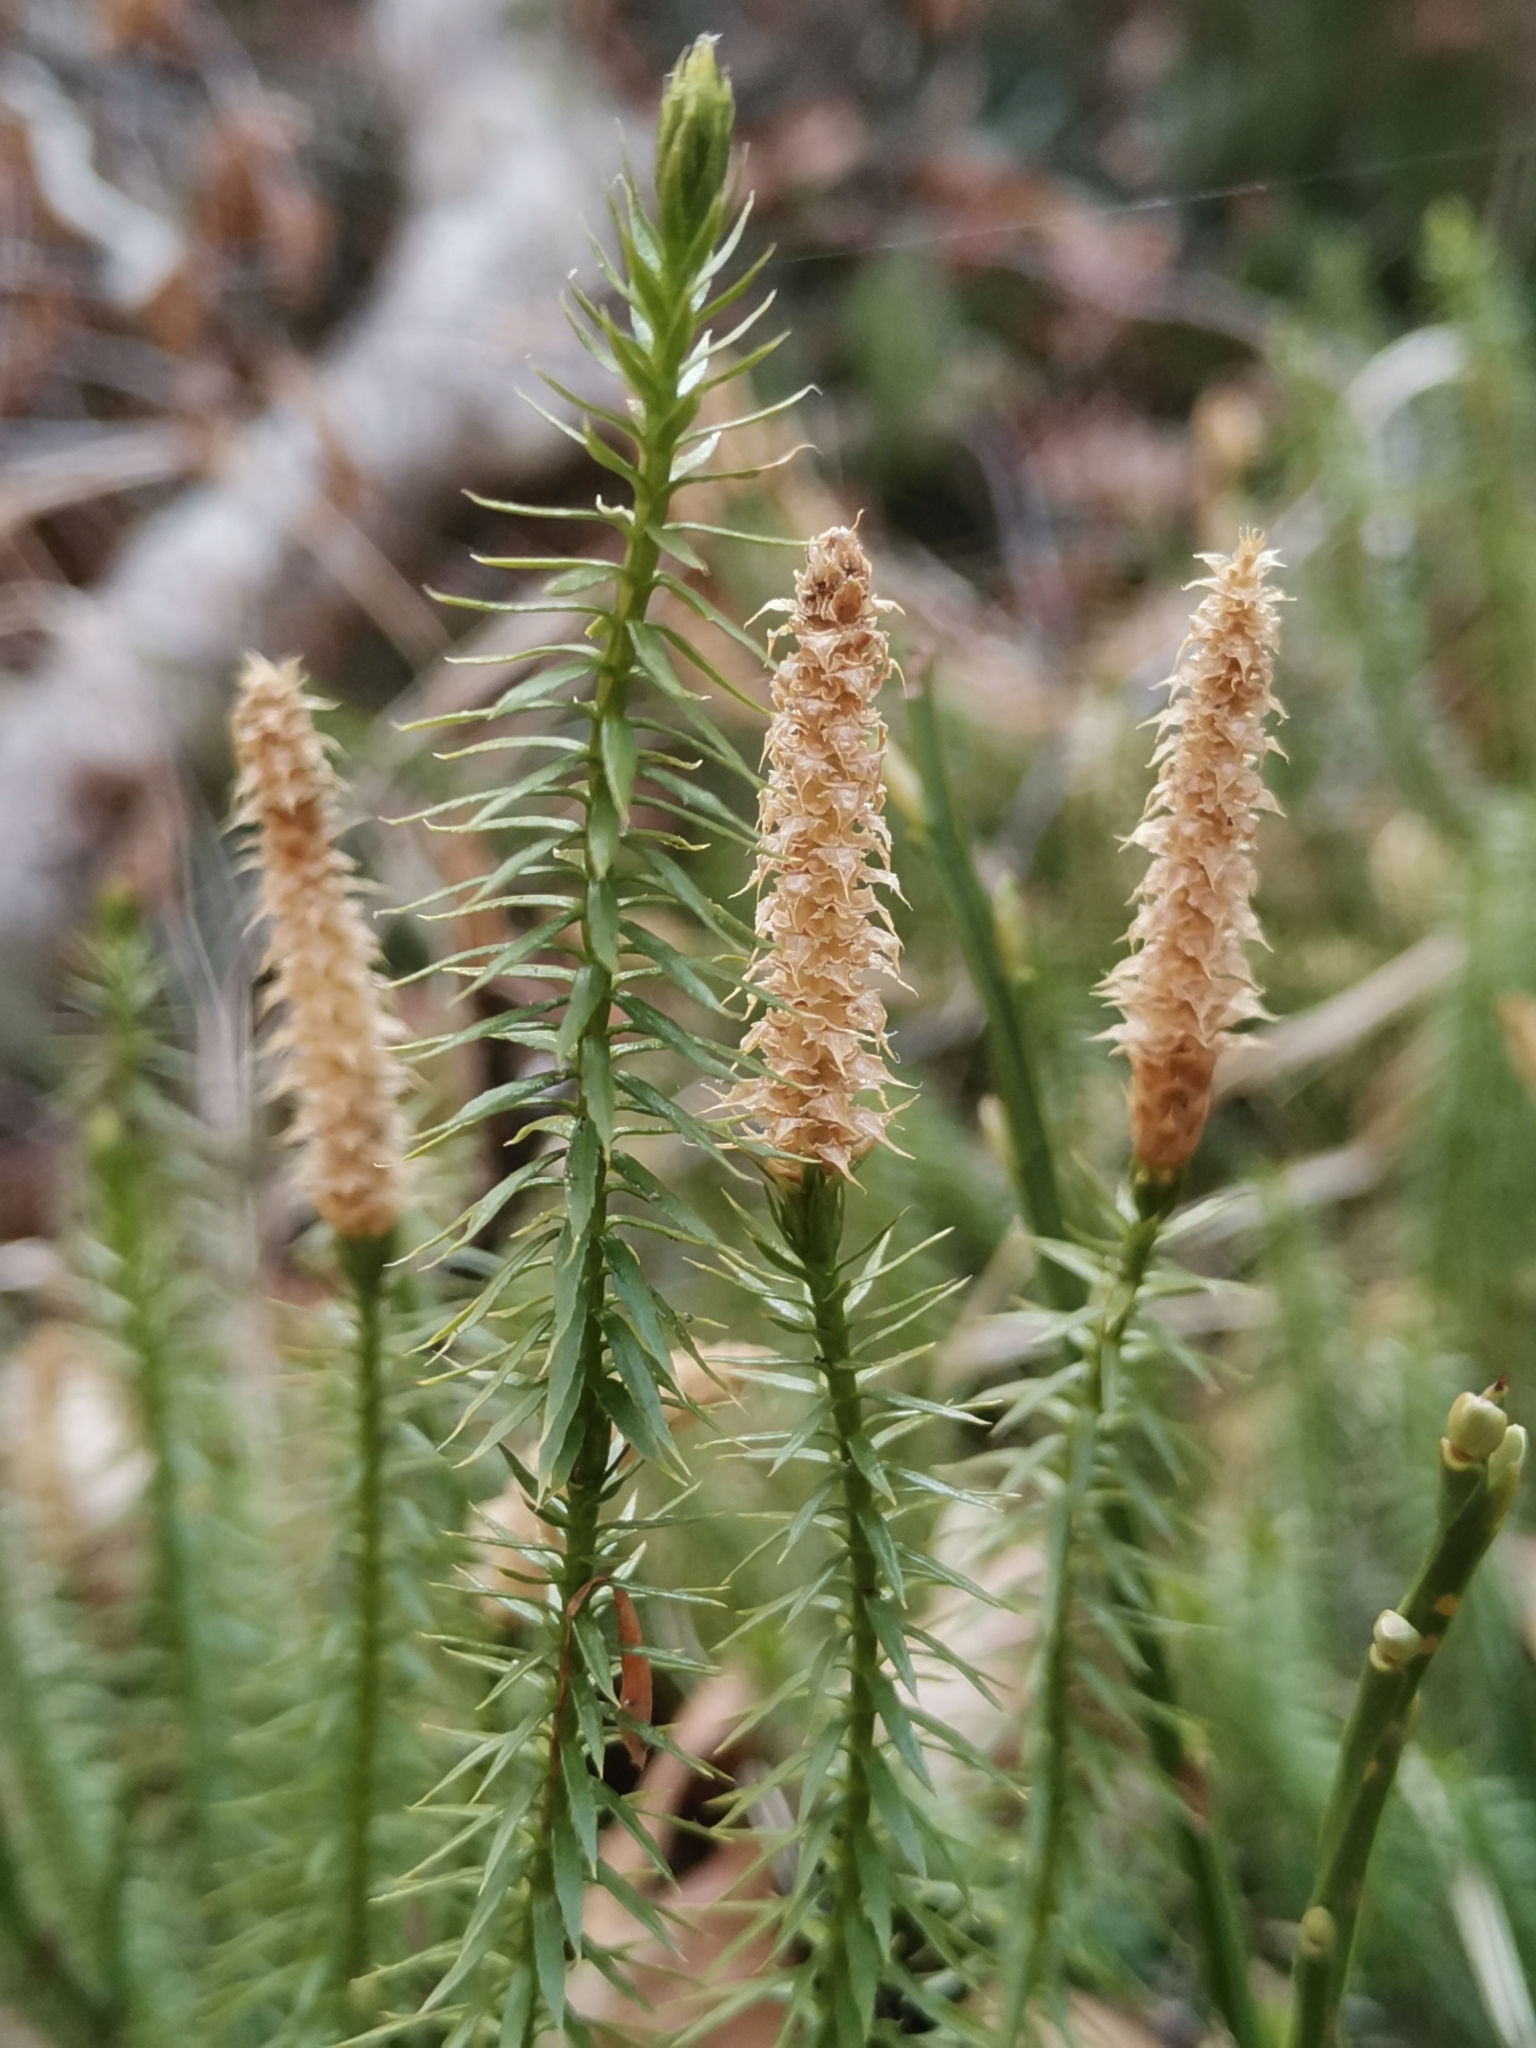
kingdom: Plantae
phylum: Tracheophyta
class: Lycopodiopsida
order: Lycopodiales
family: Lycopodiaceae
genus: Spinulum
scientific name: Spinulum annotinum
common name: Interrupted club-moss
